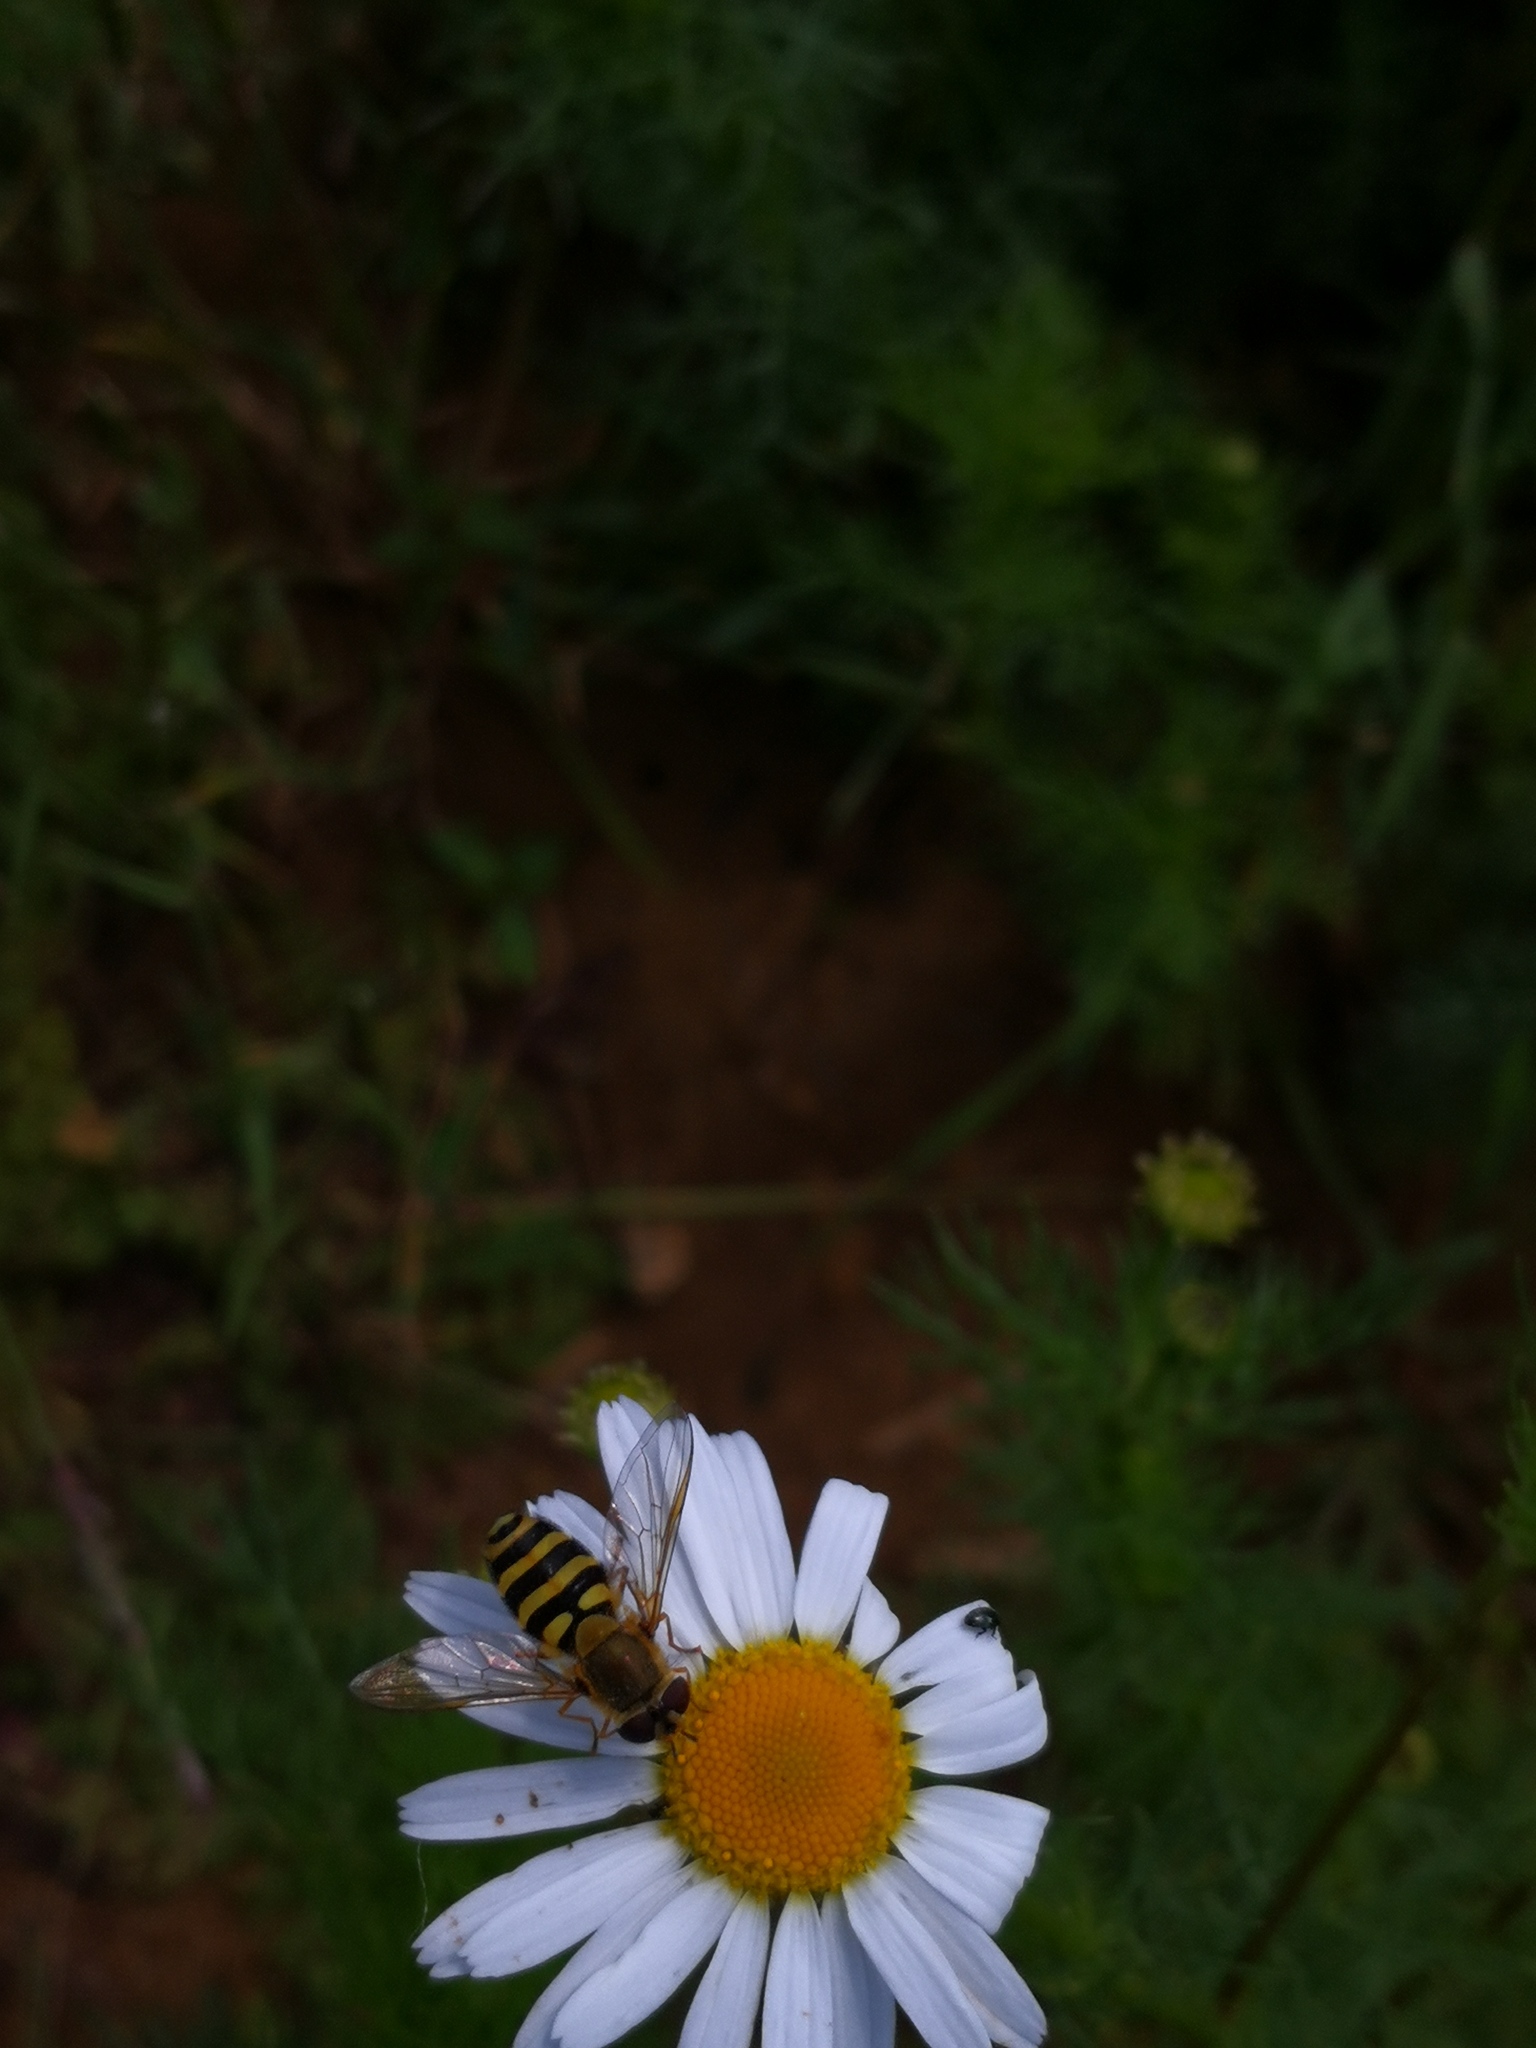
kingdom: Animalia
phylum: Arthropoda
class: Insecta
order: Diptera
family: Syrphidae
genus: Syrphus
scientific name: Syrphus
